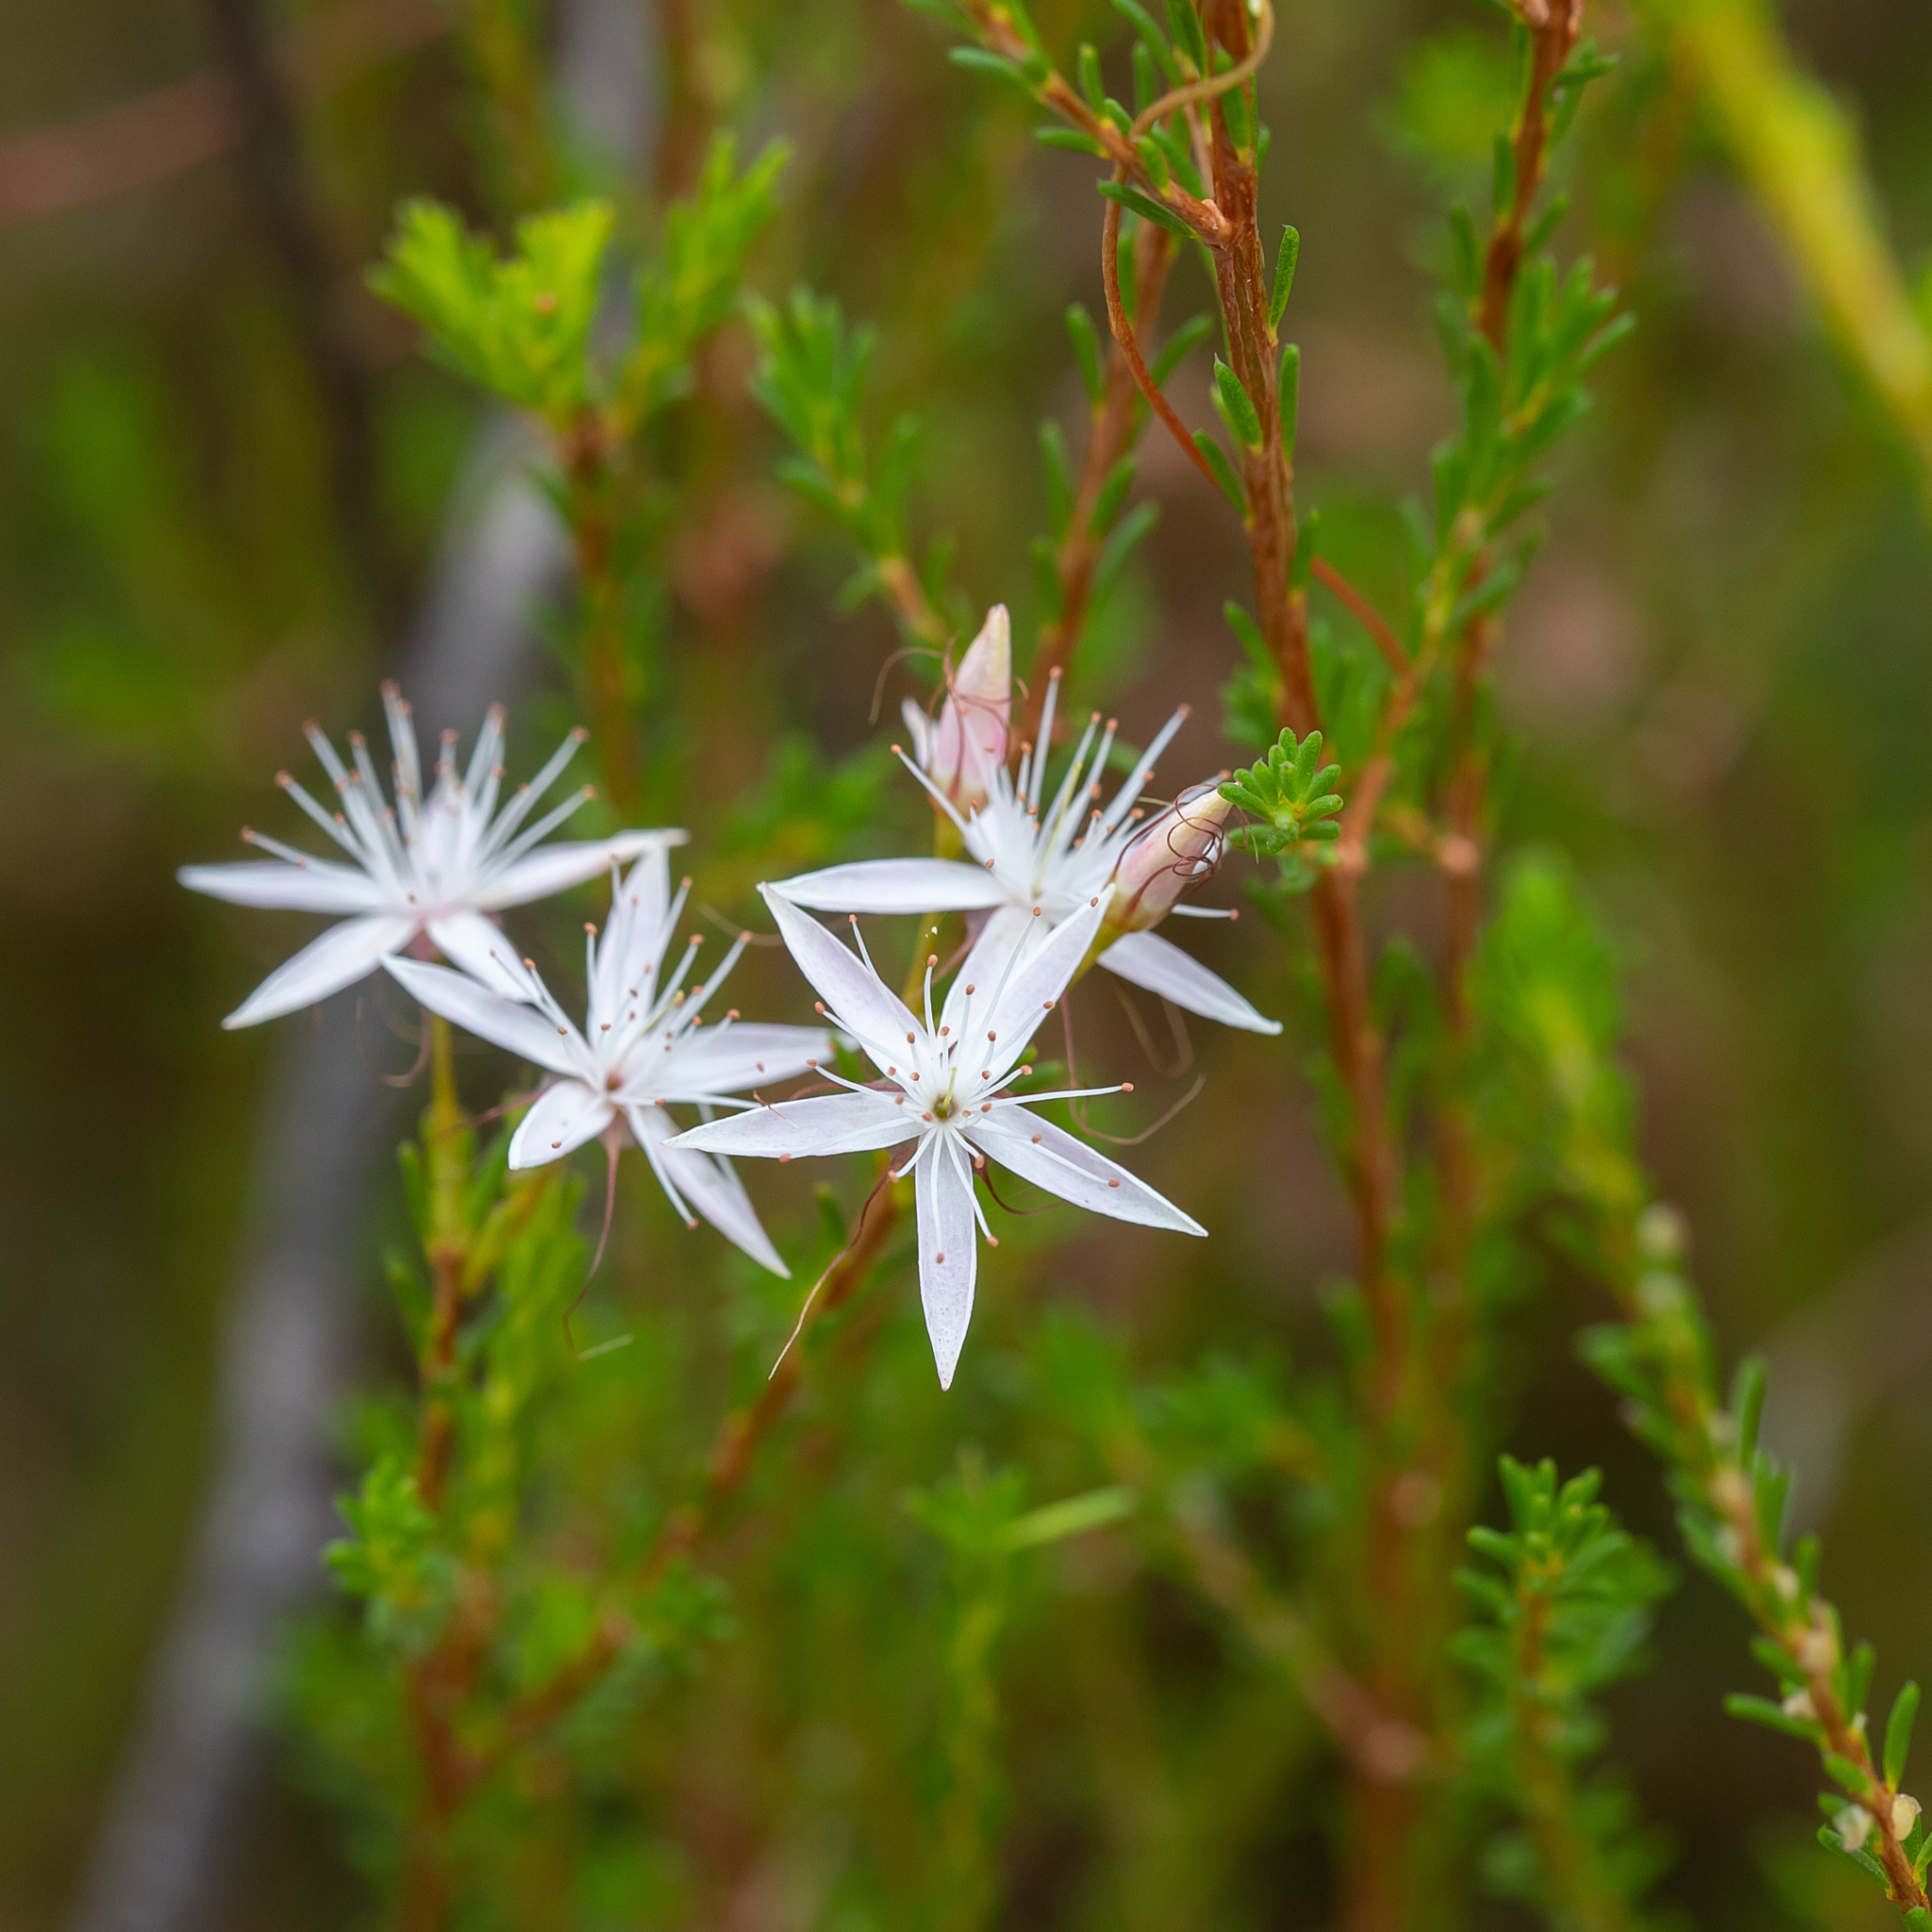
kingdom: Plantae
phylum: Tracheophyta
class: Magnoliopsida
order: Myrtales
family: Myrtaceae
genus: Calytrix
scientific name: Calytrix tetragona
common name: Common fringe myrtle
